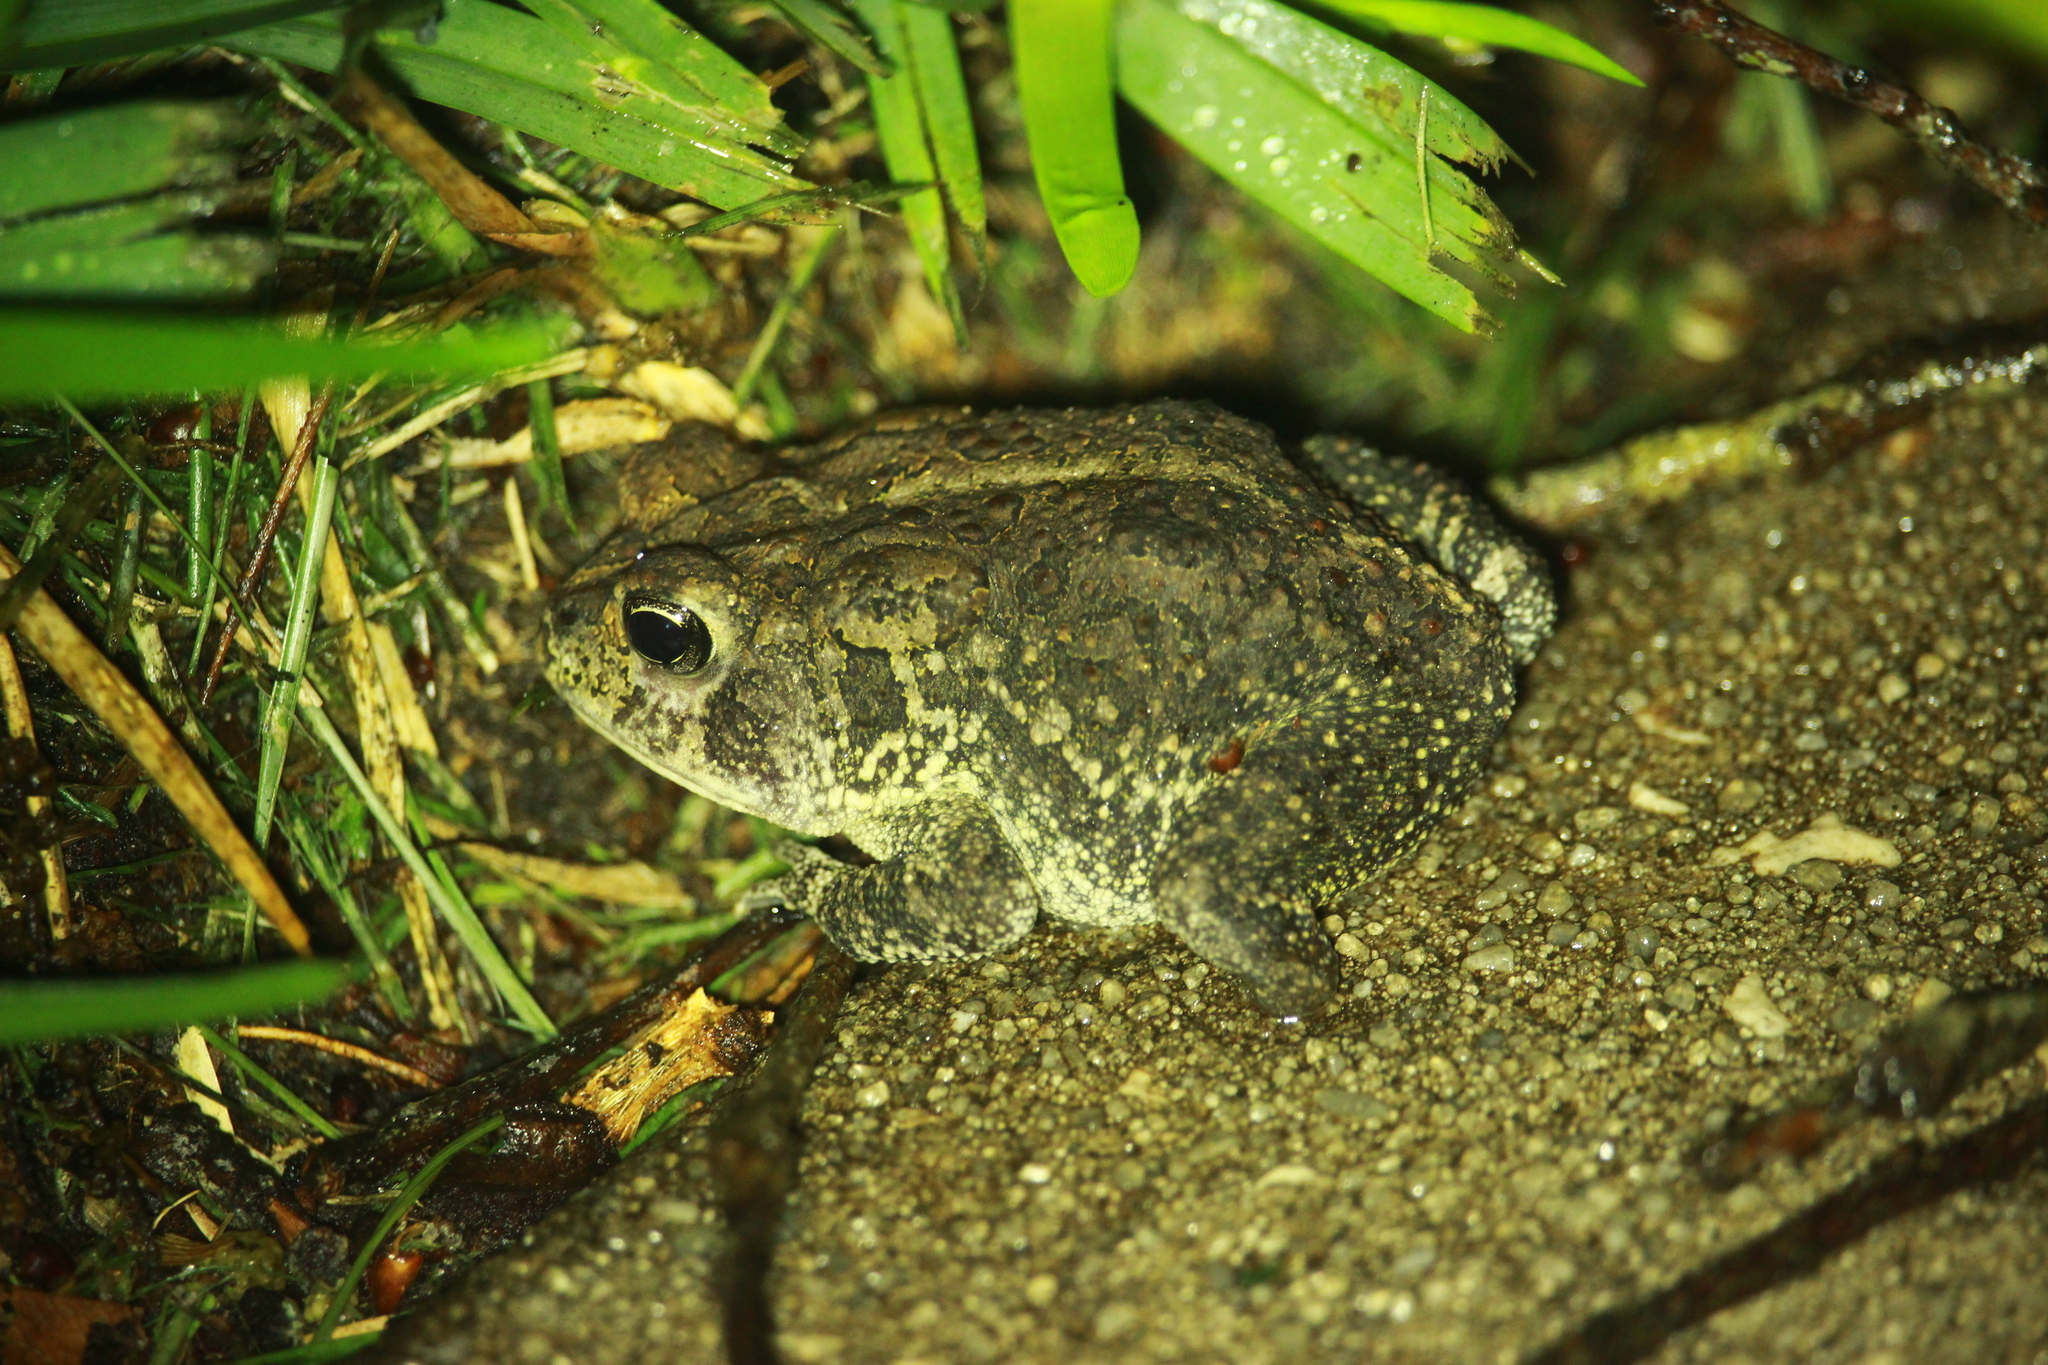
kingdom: Animalia
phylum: Chordata
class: Amphibia
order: Anura
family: Bufonidae
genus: Anaxyrus
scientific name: Anaxyrus terrestris
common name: Southern toad
